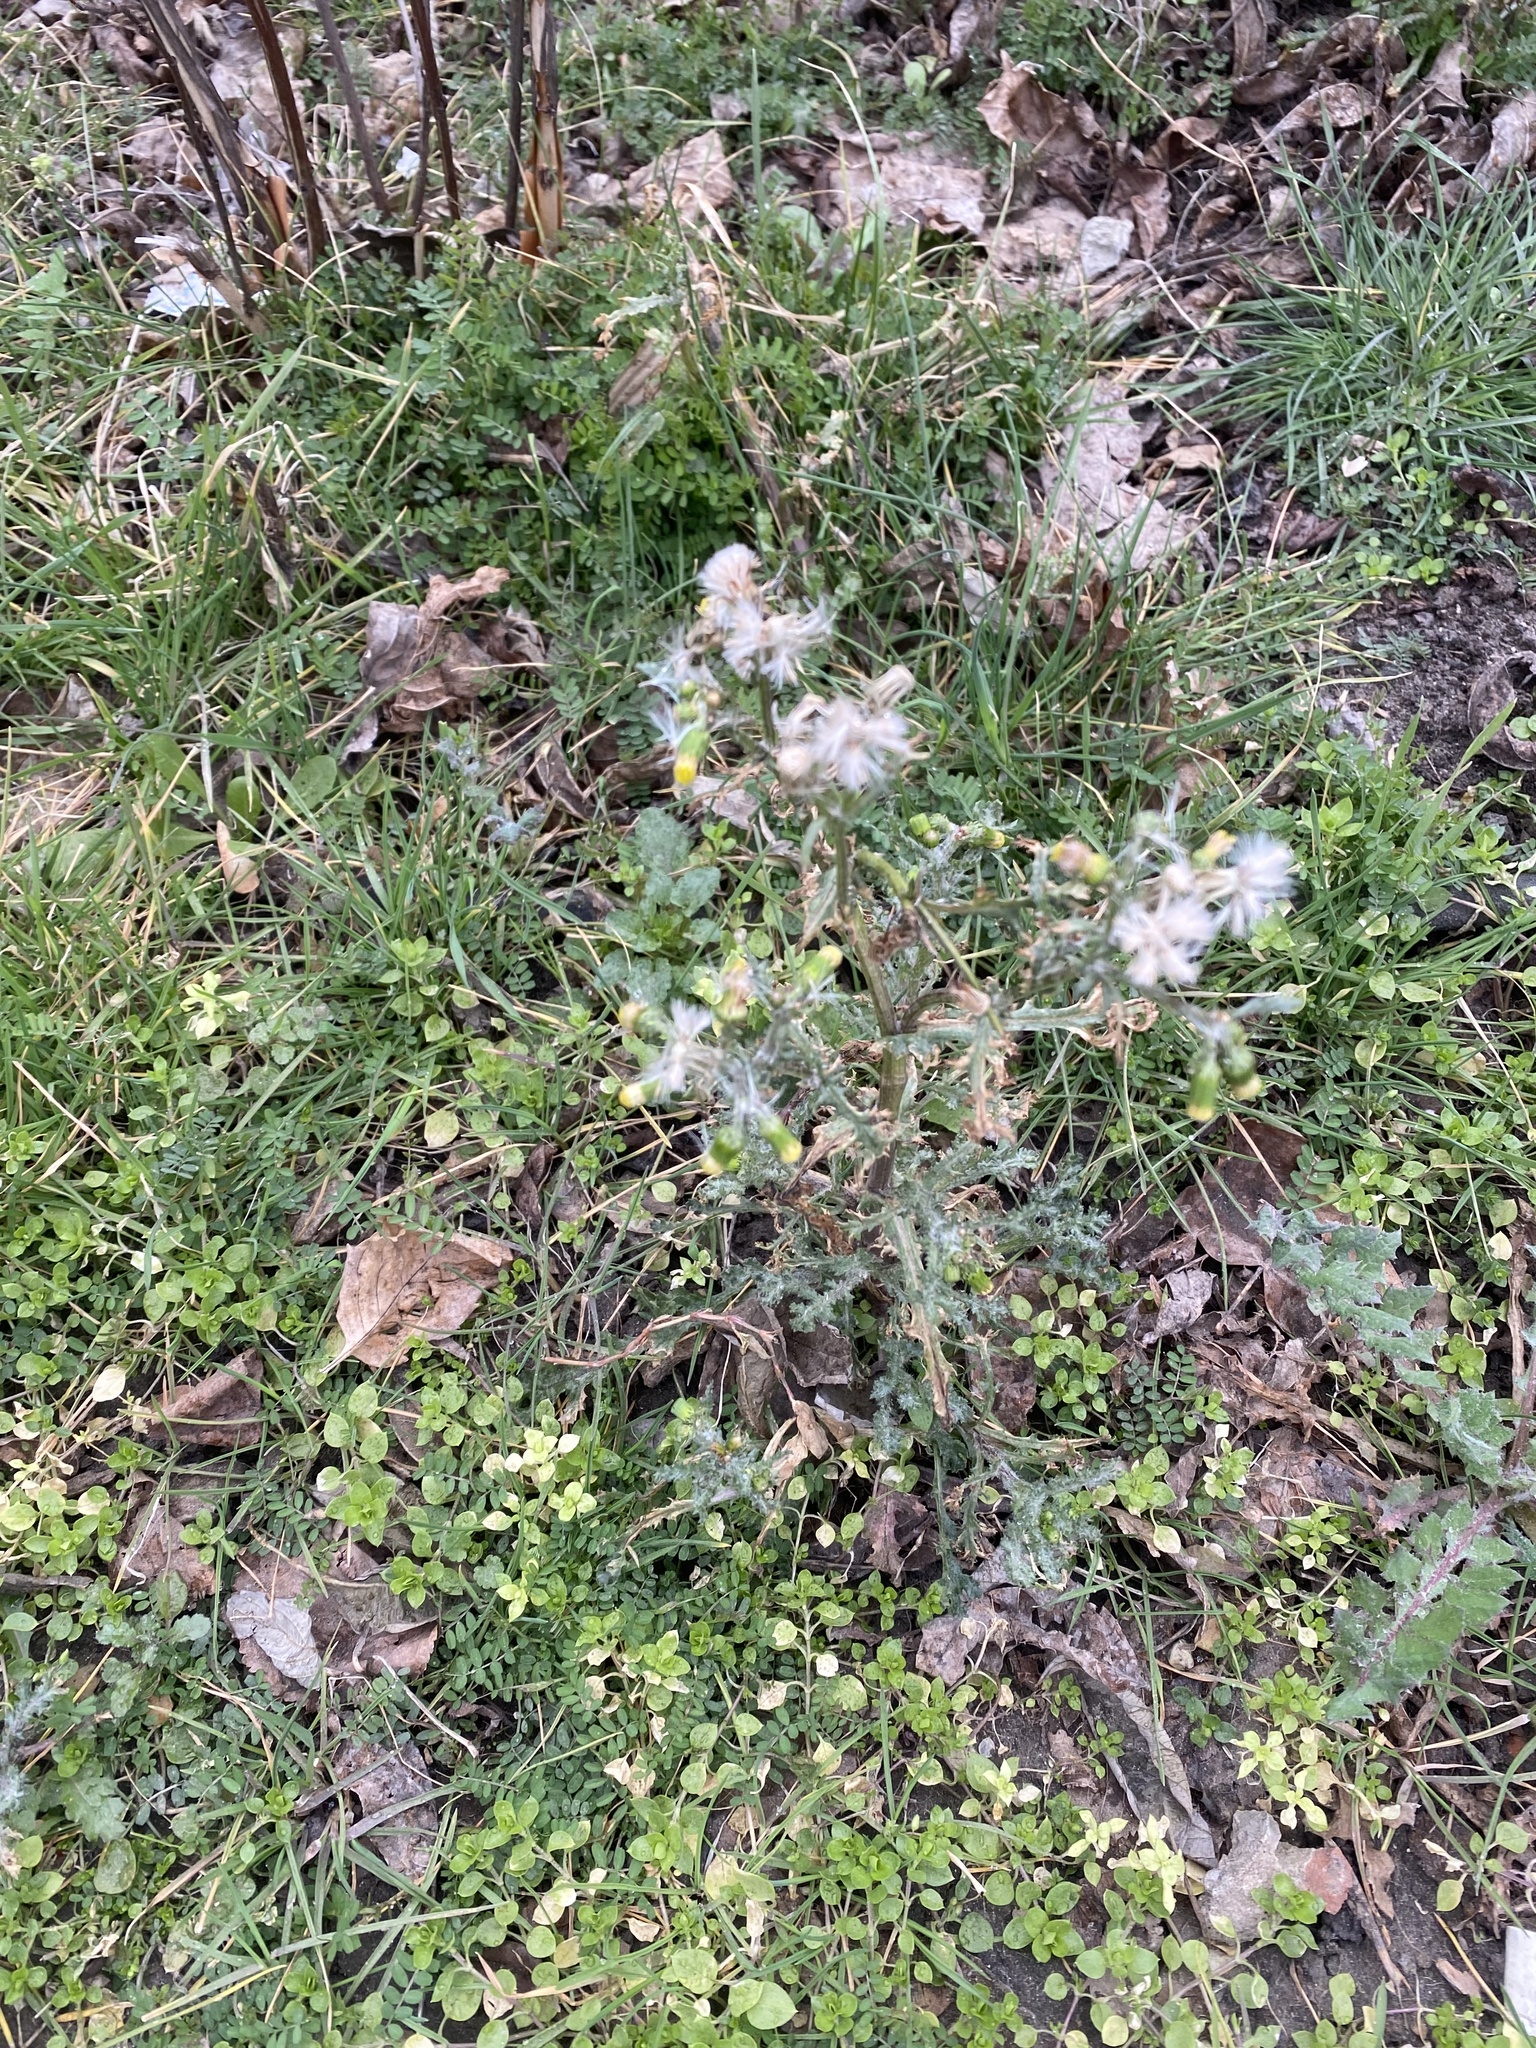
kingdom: Plantae
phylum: Tracheophyta
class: Magnoliopsida
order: Asterales
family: Asteraceae
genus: Senecio
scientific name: Senecio vulgaris
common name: Old-man-in-the-spring
